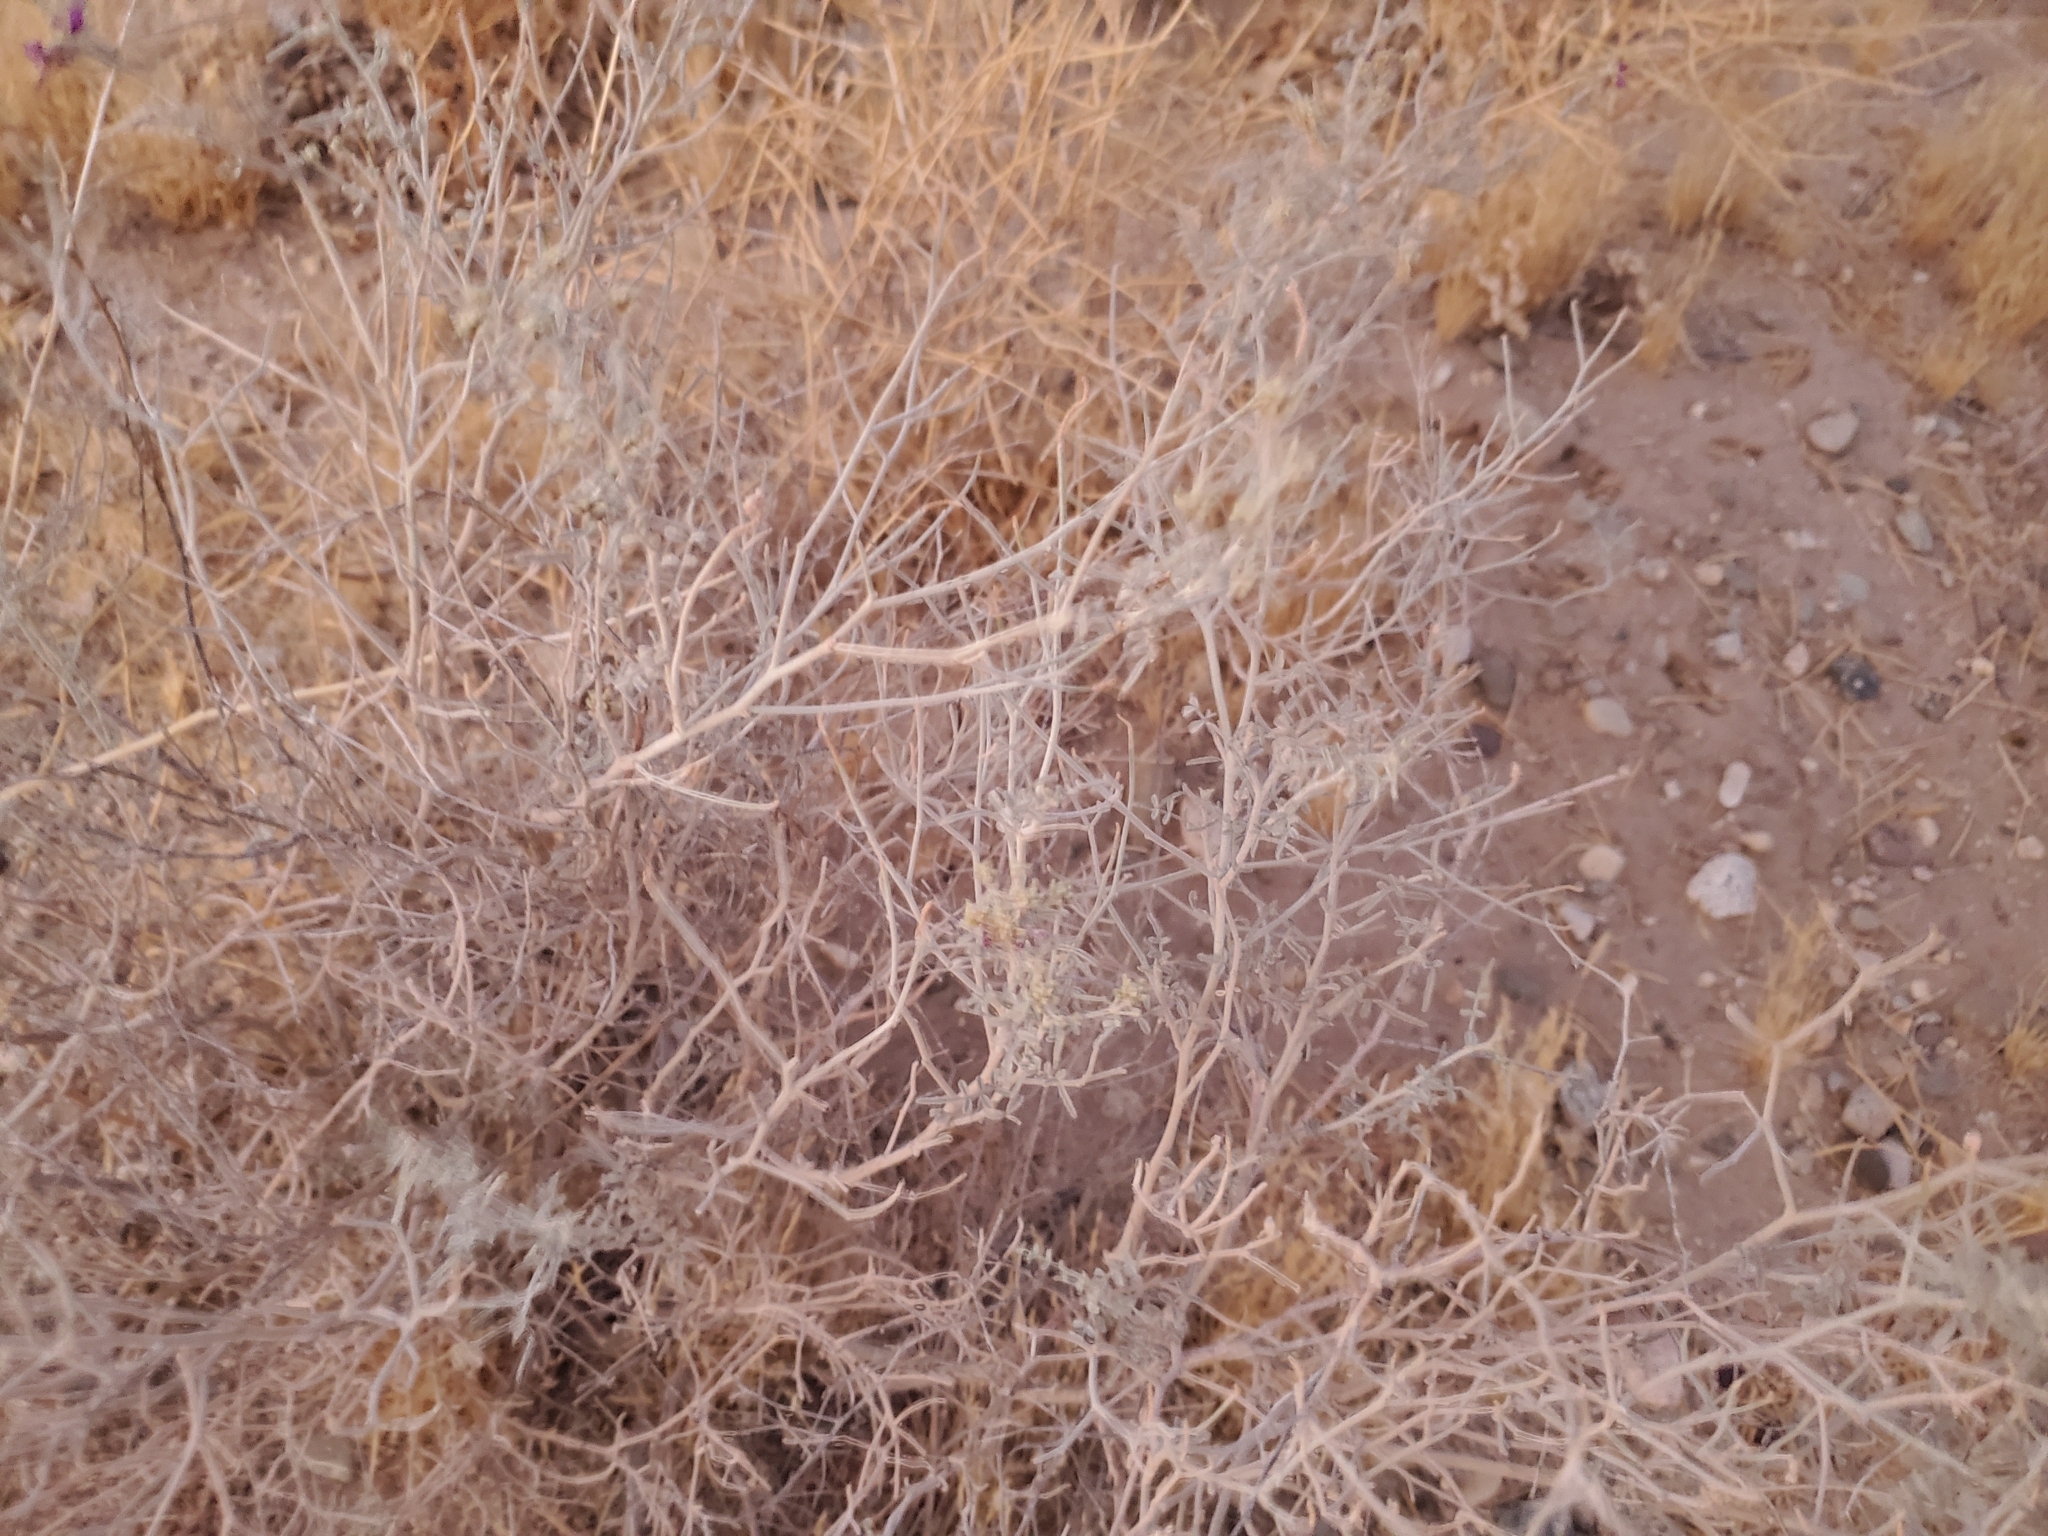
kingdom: Plantae
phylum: Tracheophyta
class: Magnoliopsida
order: Fabales
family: Fabaceae
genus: Psorothamnus
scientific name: Psorothamnus emoryi
